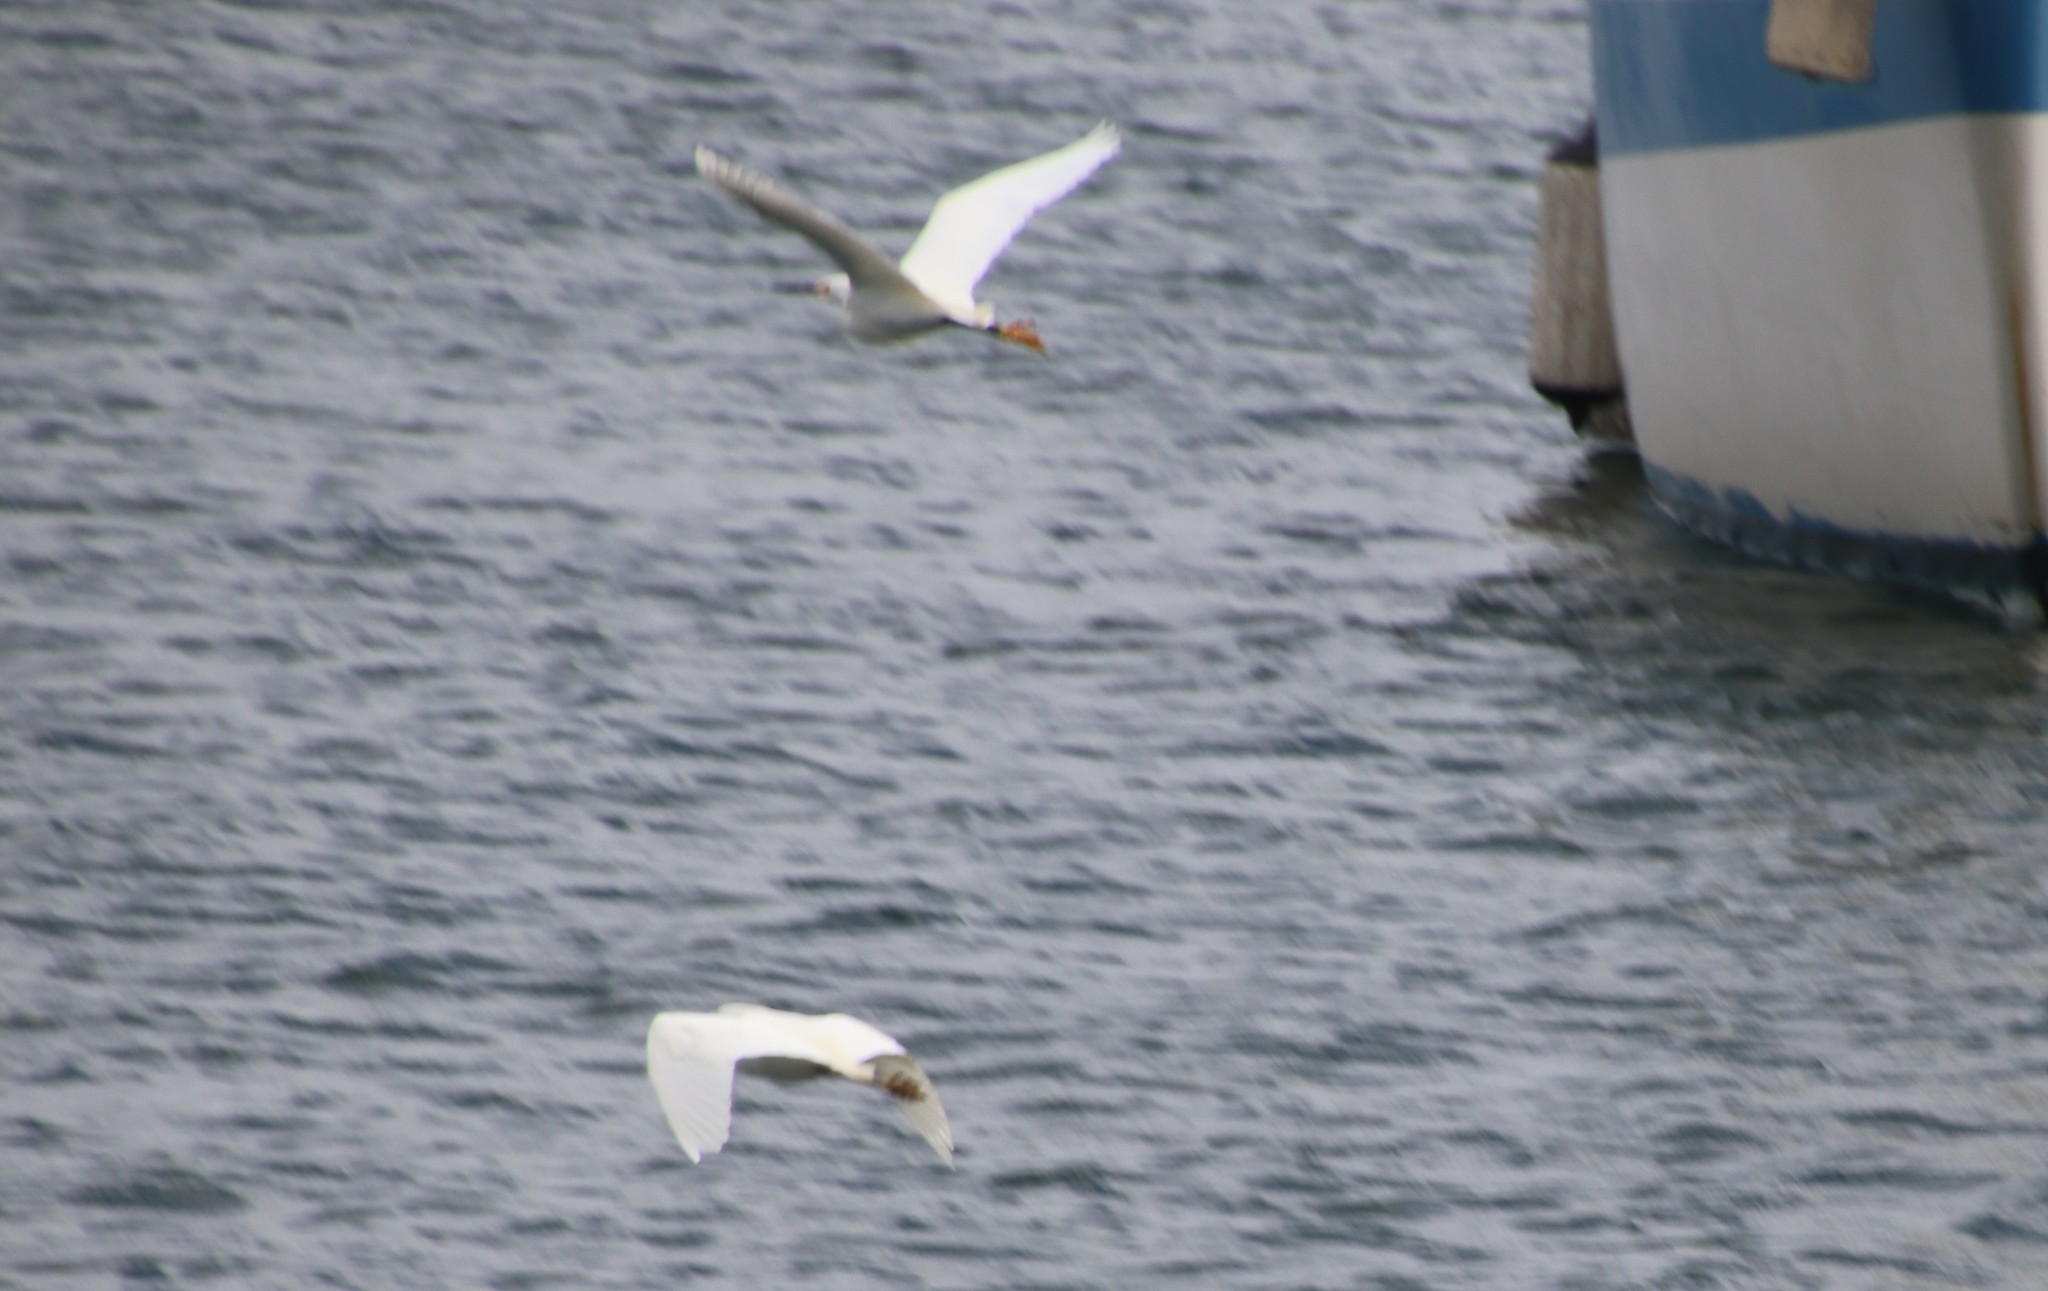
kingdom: Animalia
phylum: Chordata
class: Aves
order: Pelecaniformes
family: Ardeidae
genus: Egretta
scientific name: Egretta thula
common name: Snowy egret
